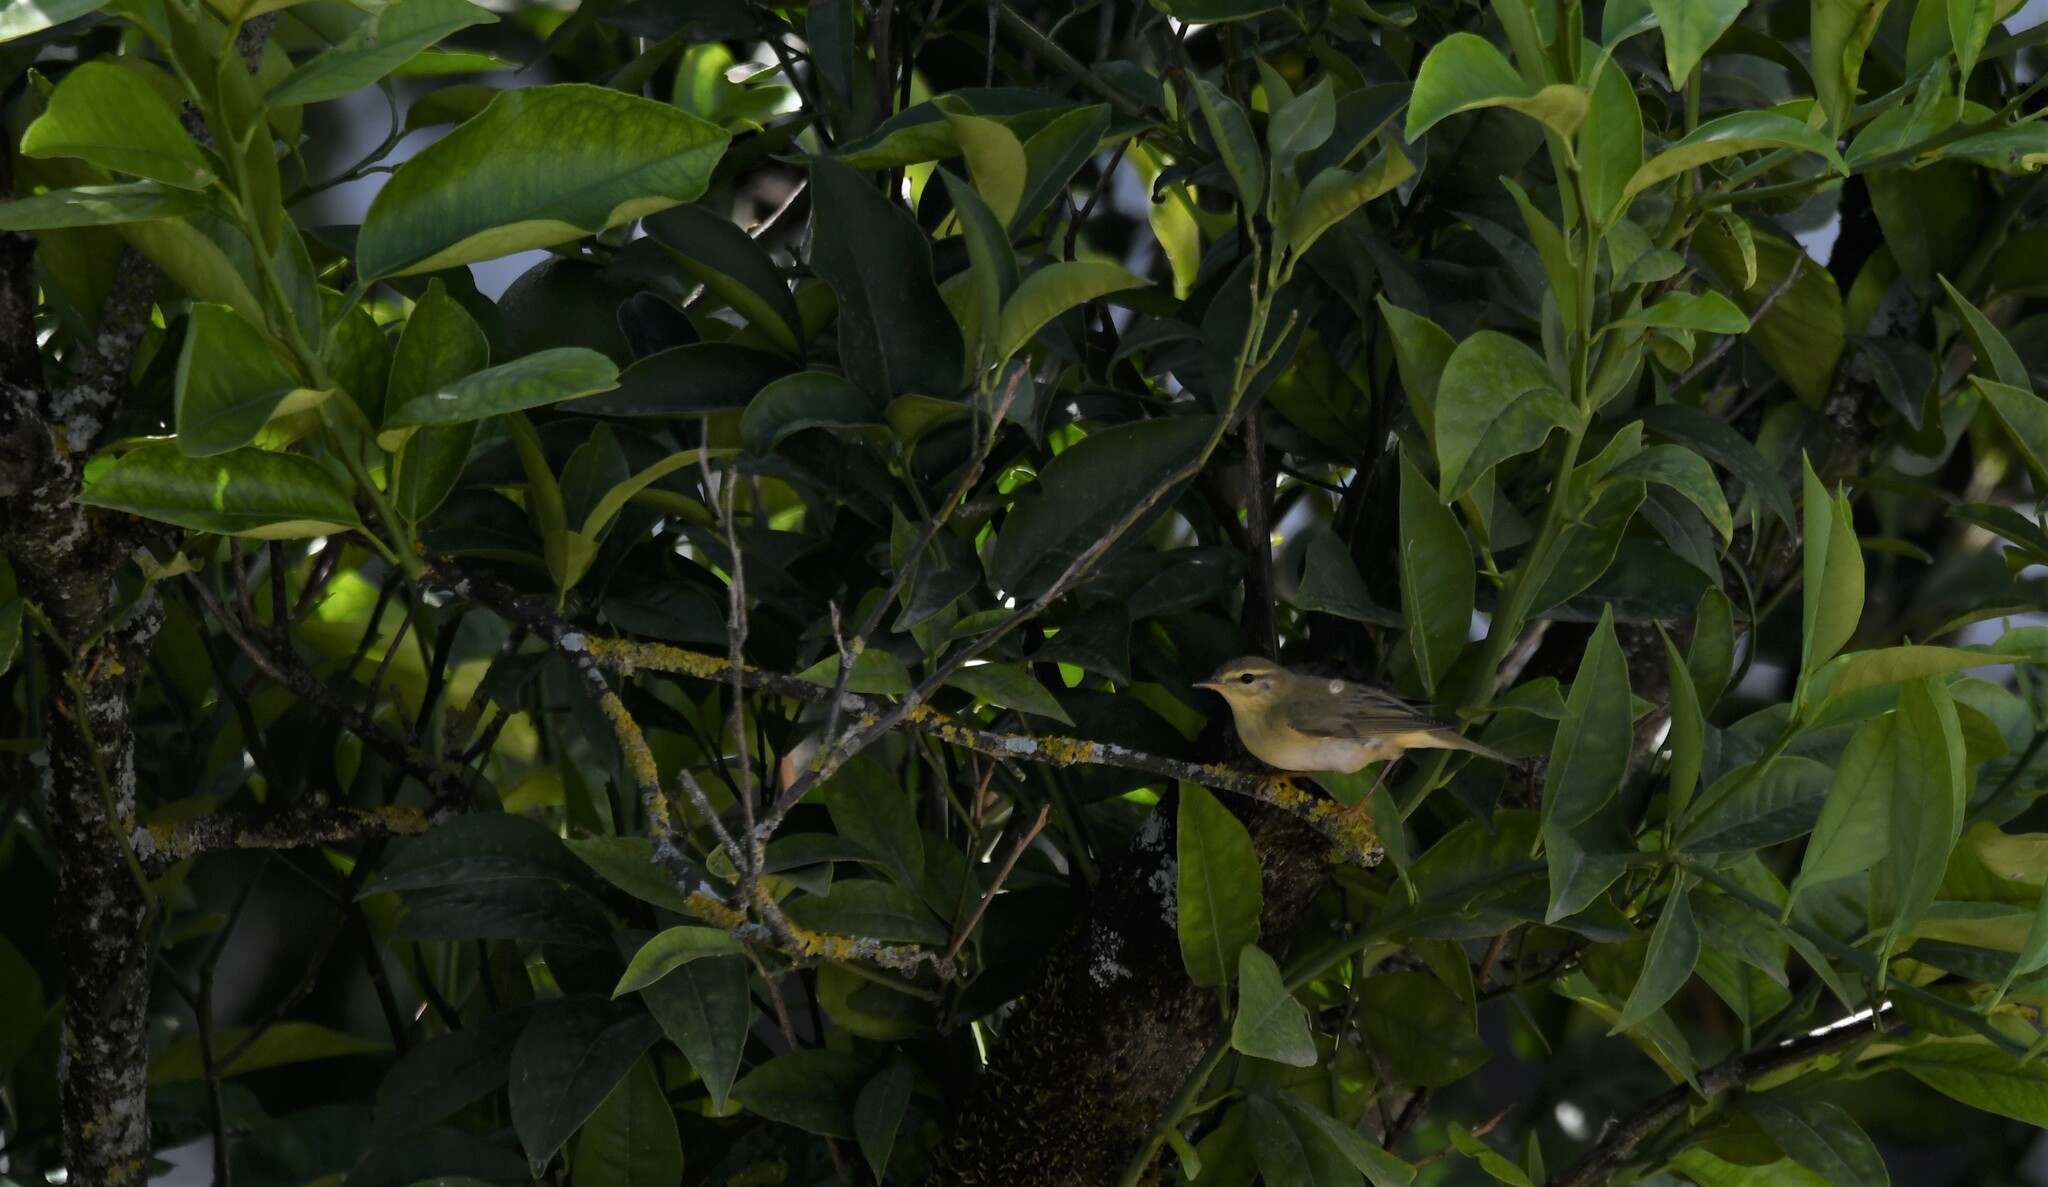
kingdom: Animalia
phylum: Chordata
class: Aves
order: Passeriformes
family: Phylloscopidae
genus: Phylloscopus
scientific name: Phylloscopus trochilus
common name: Willow warbler
